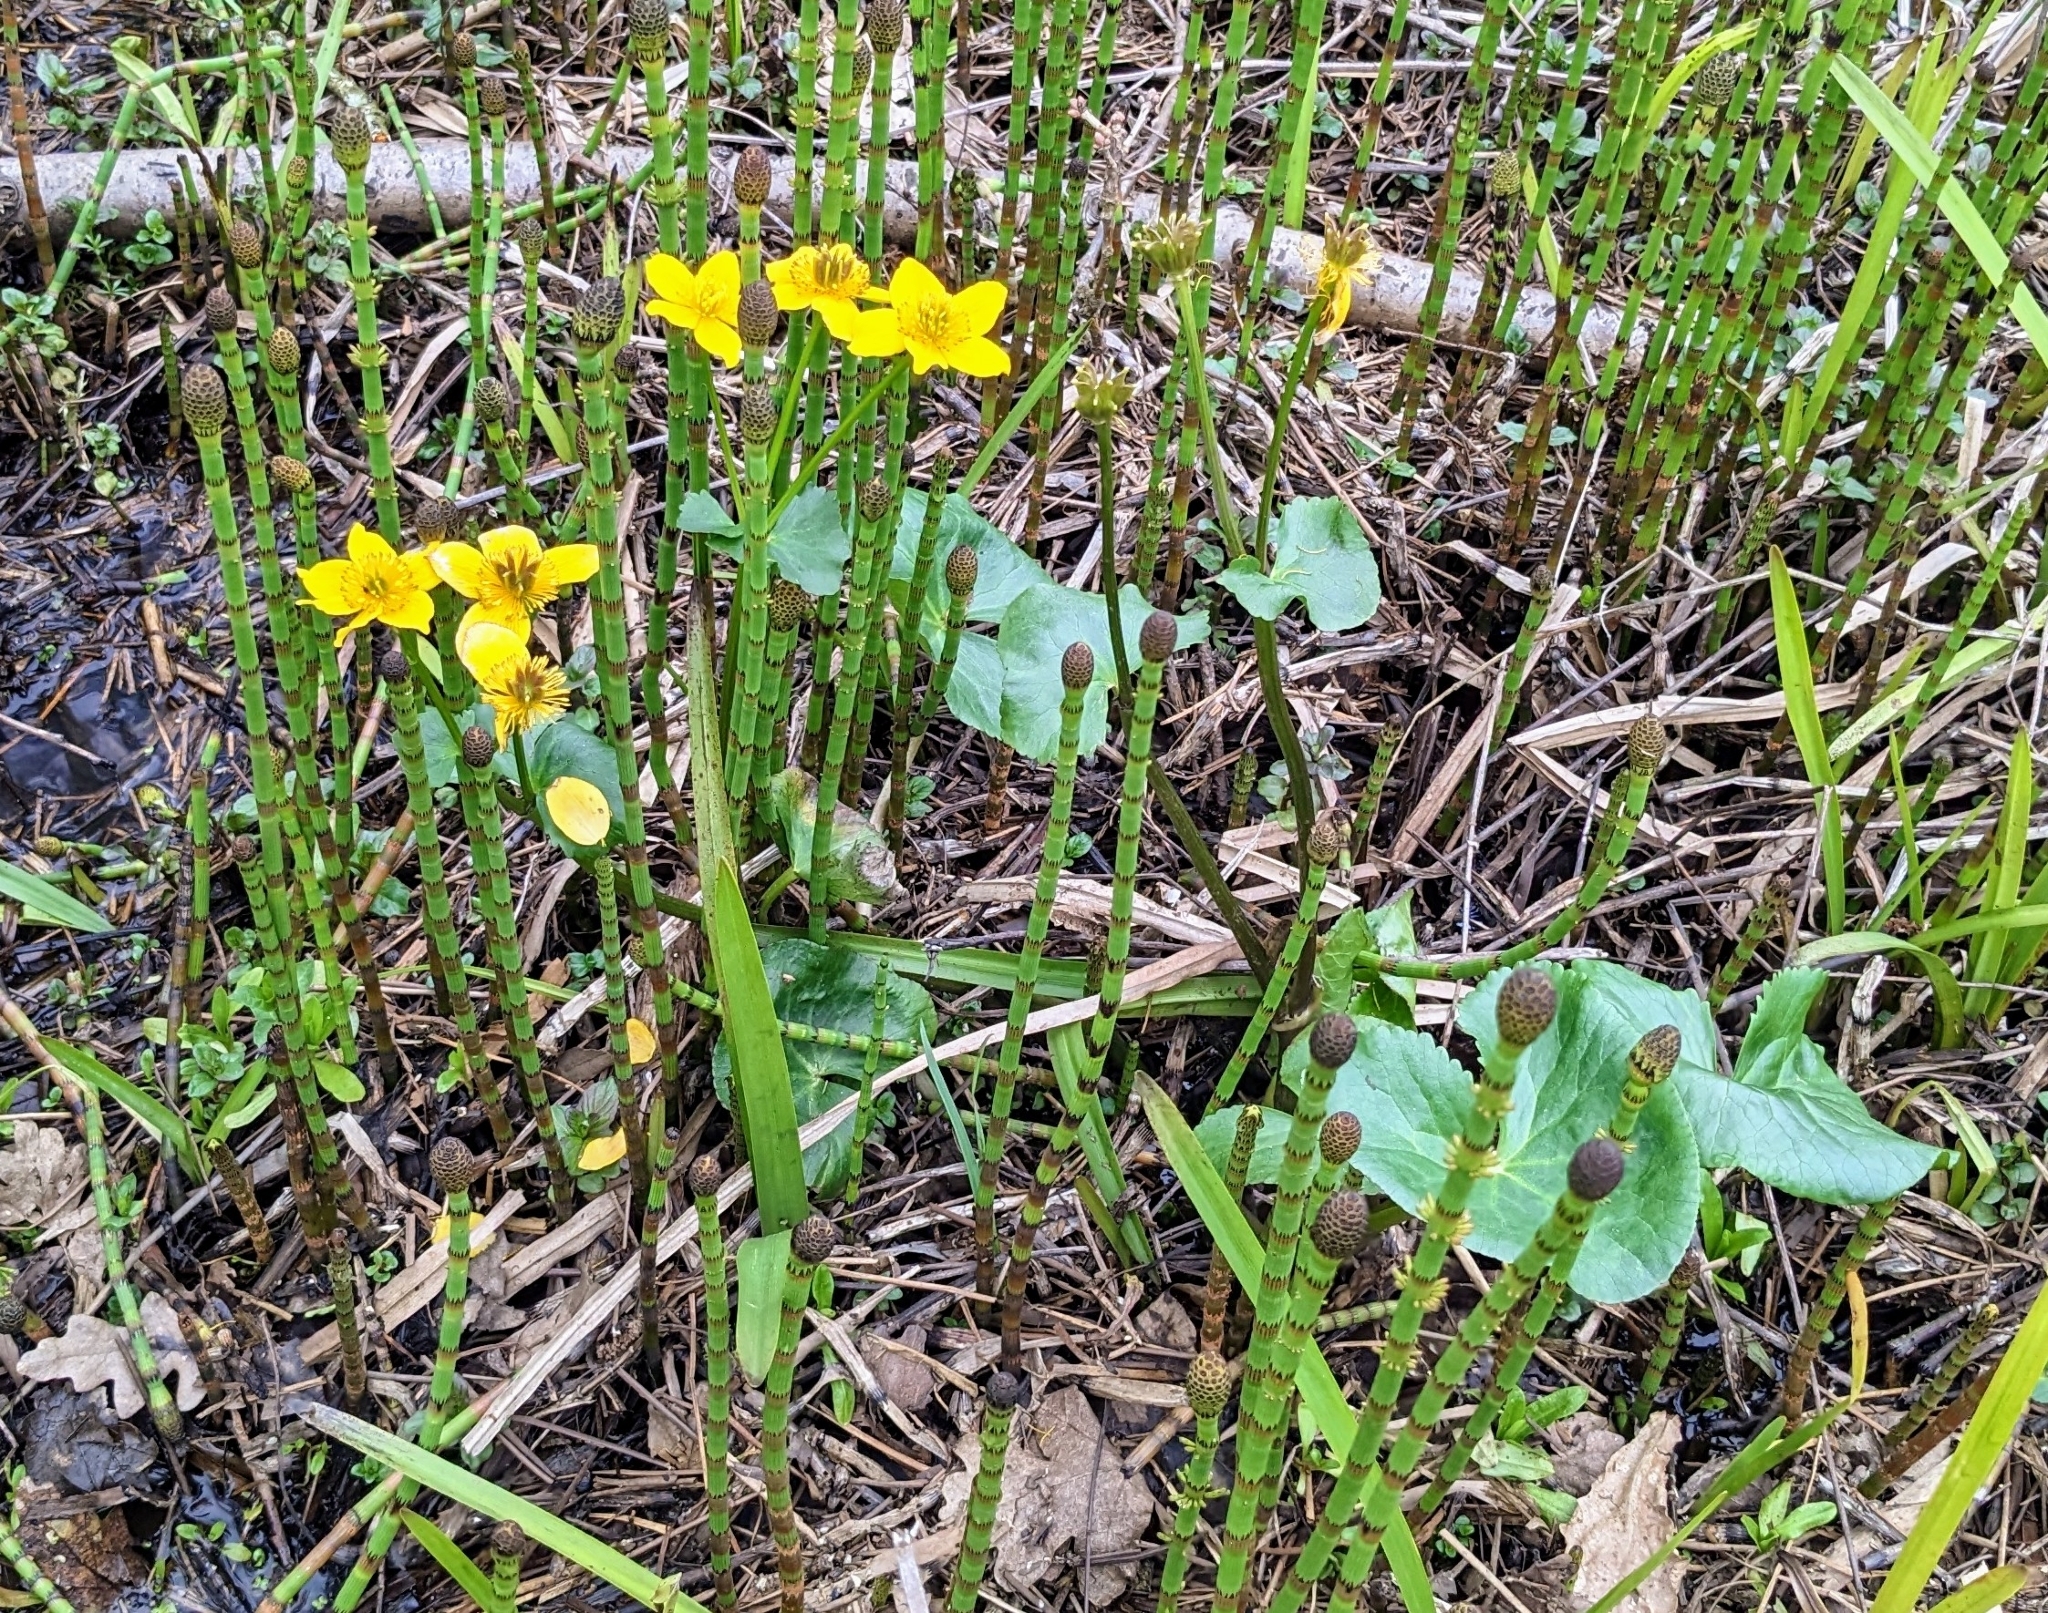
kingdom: Plantae
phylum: Tracheophyta
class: Magnoliopsida
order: Ranunculales
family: Ranunculaceae
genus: Caltha
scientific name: Caltha palustris
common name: Marsh marigold
